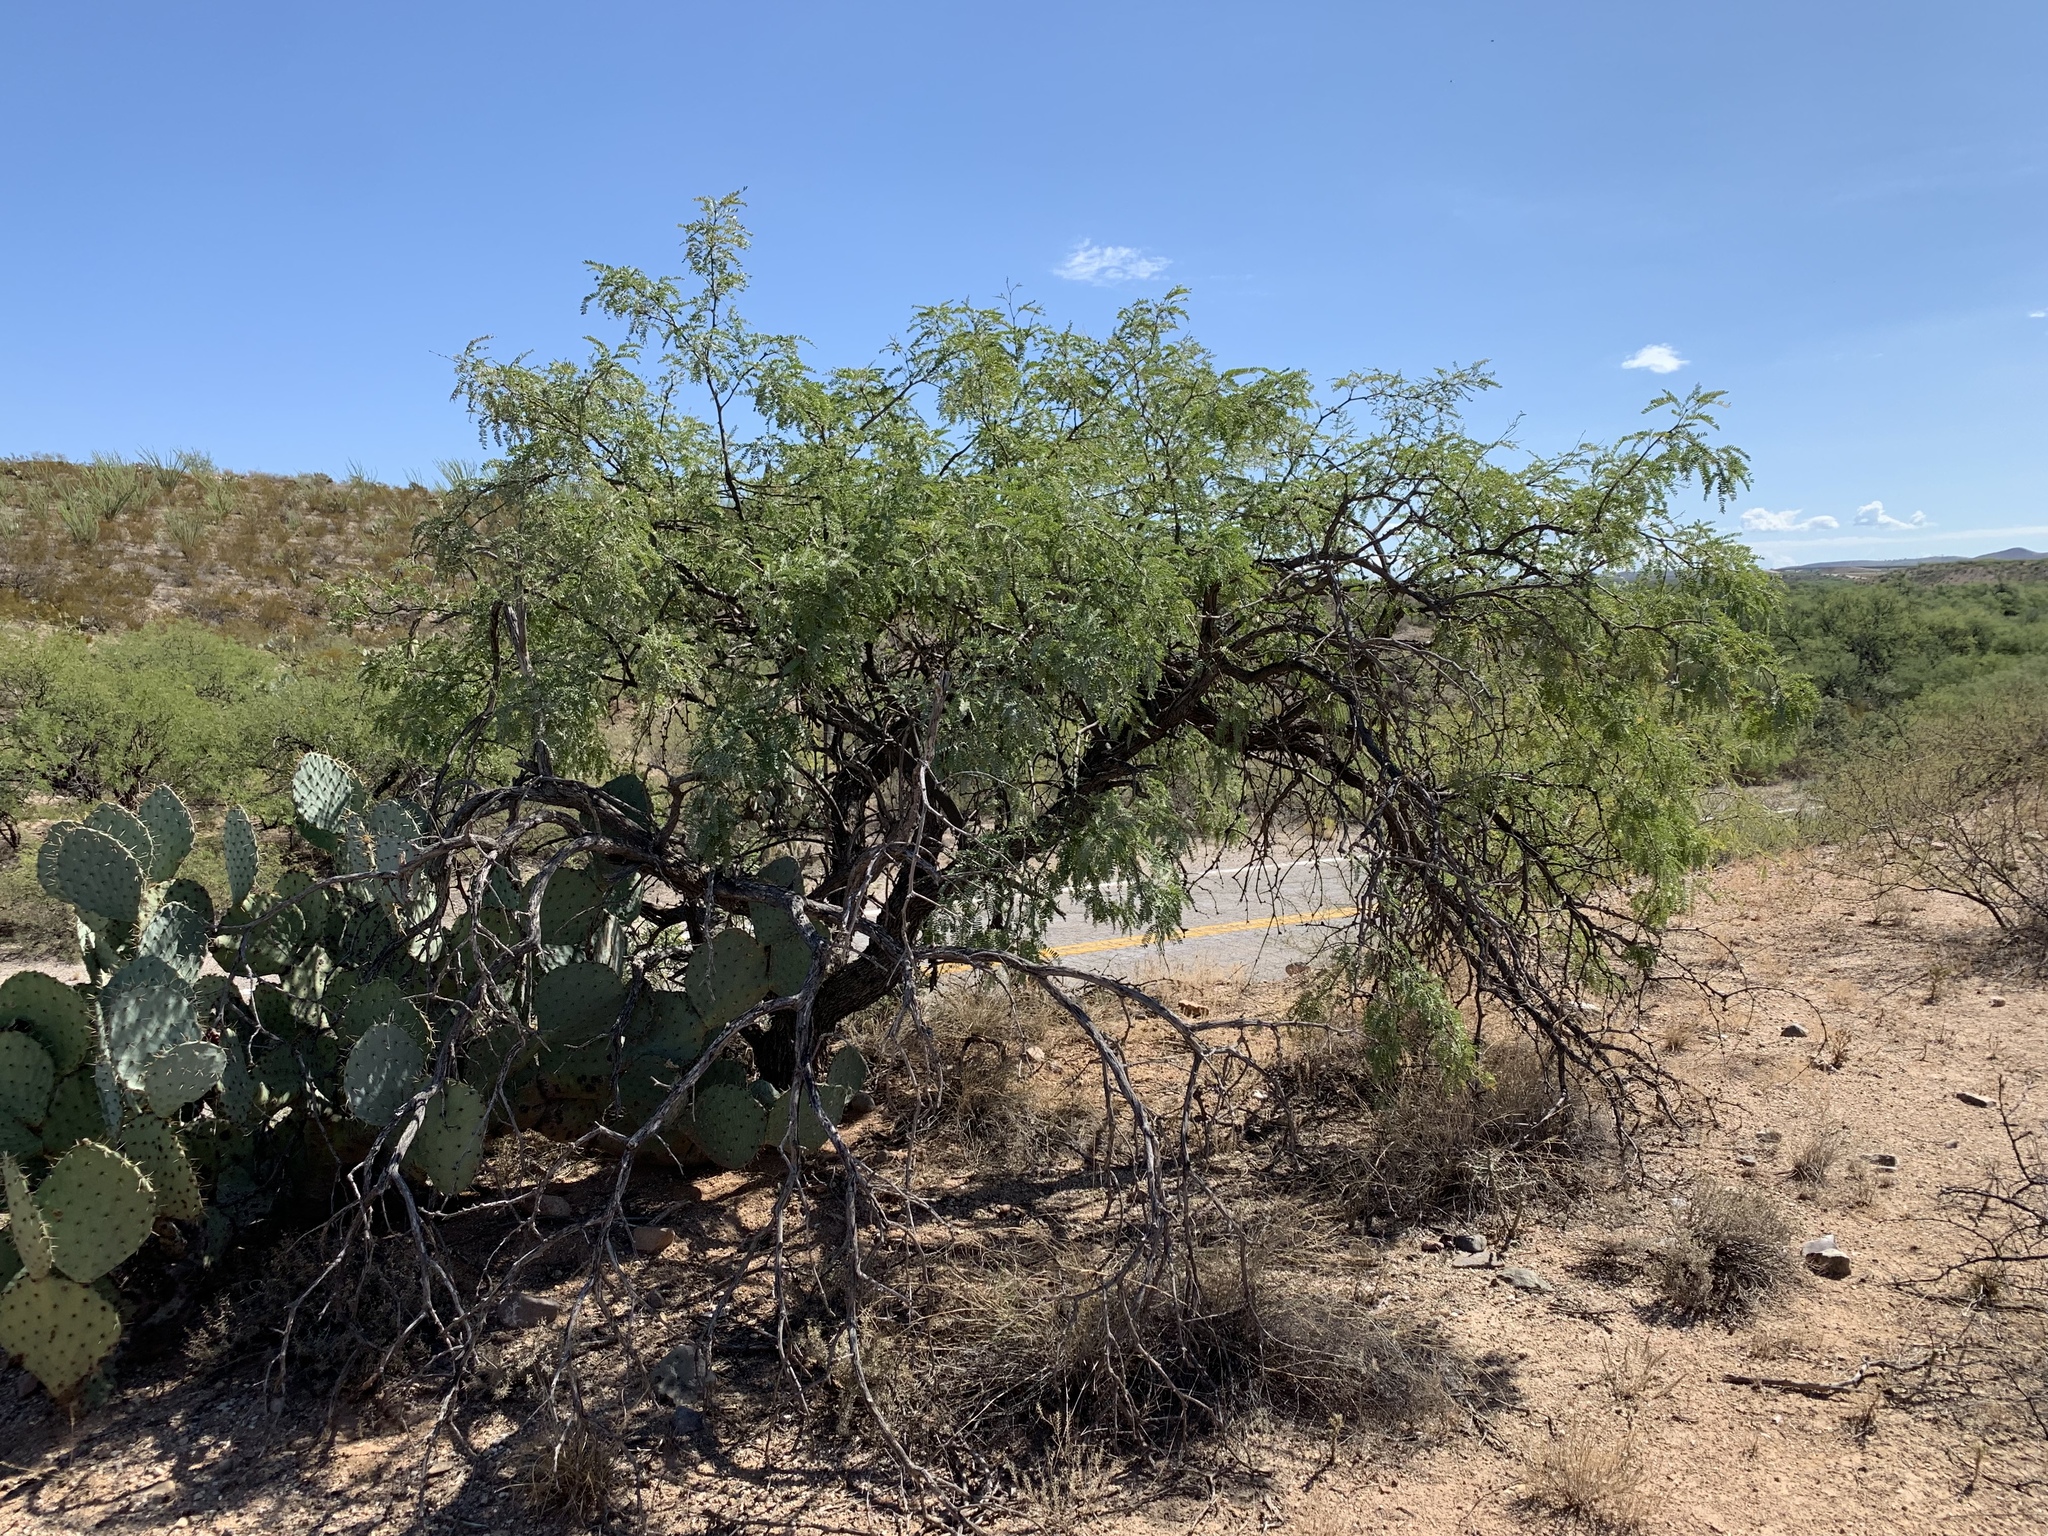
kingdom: Plantae
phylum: Tracheophyta
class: Magnoliopsida
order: Fabales
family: Fabaceae
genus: Prosopis
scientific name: Prosopis velutina
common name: Velvet mesquite
